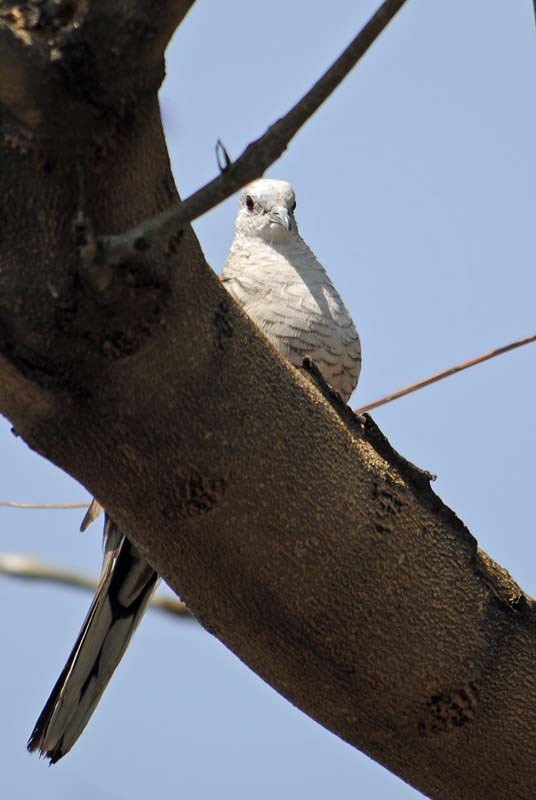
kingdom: Animalia
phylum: Chordata
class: Aves
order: Columbiformes
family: Columbidae
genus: Columbina
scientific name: Columbina inca
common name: Inca dove
